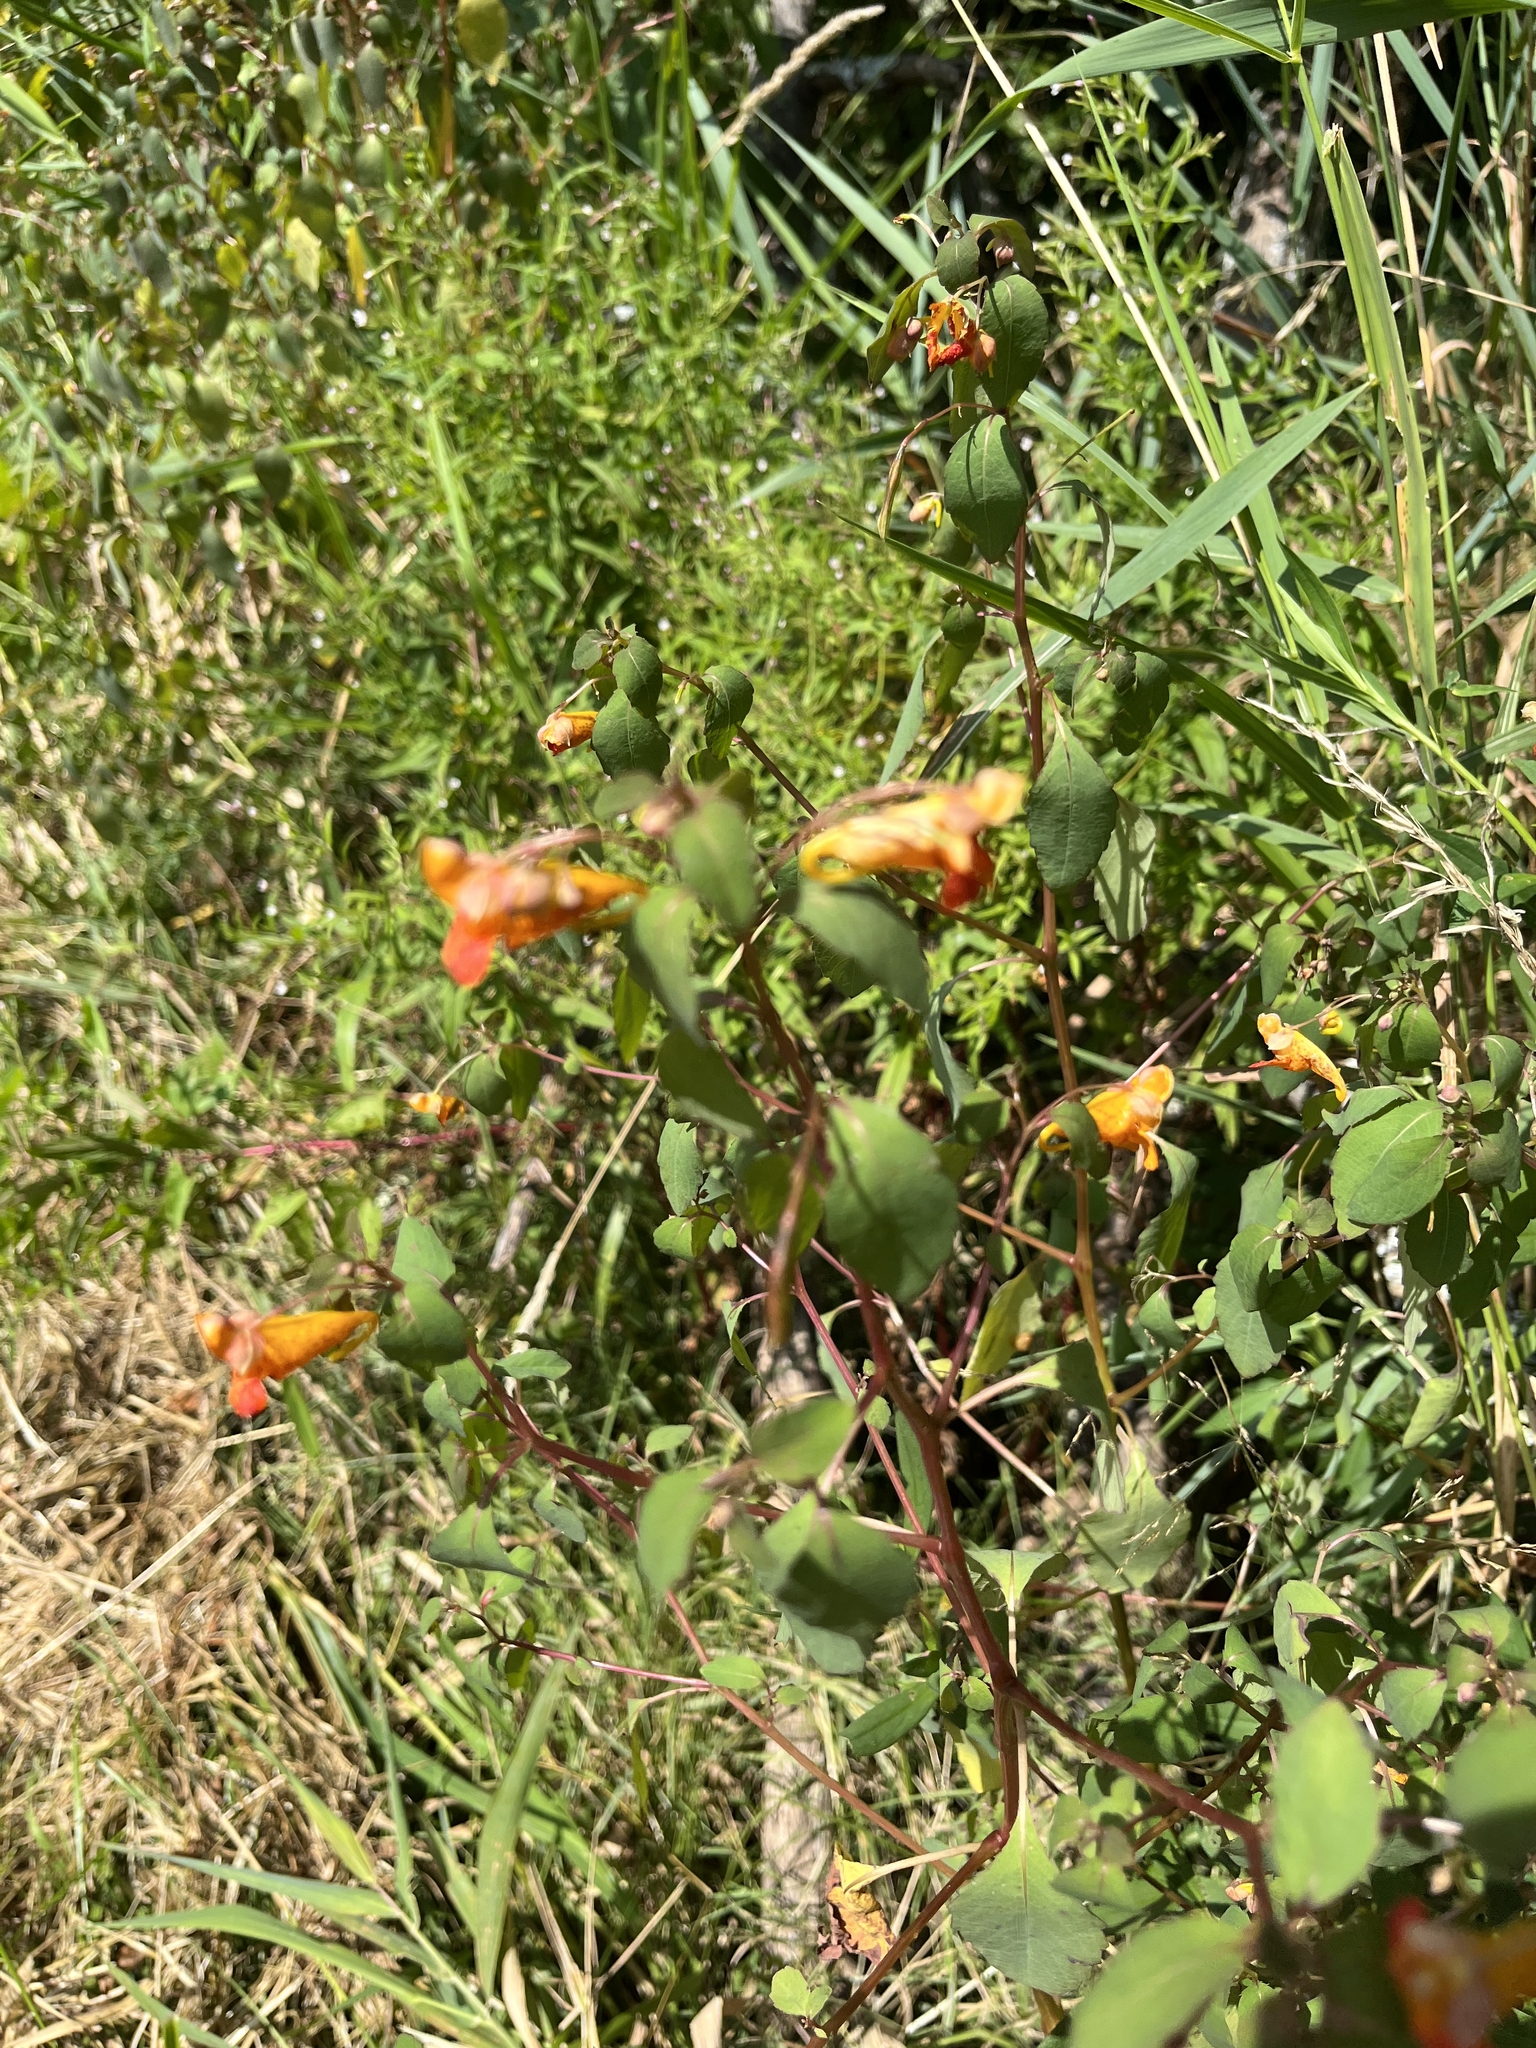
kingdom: Plantae
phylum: Tracheophyta
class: Magnoliopsida
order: Ericales
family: Balsaminaceae
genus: Impatiens
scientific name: Impatiens capensis
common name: Orange balsam
